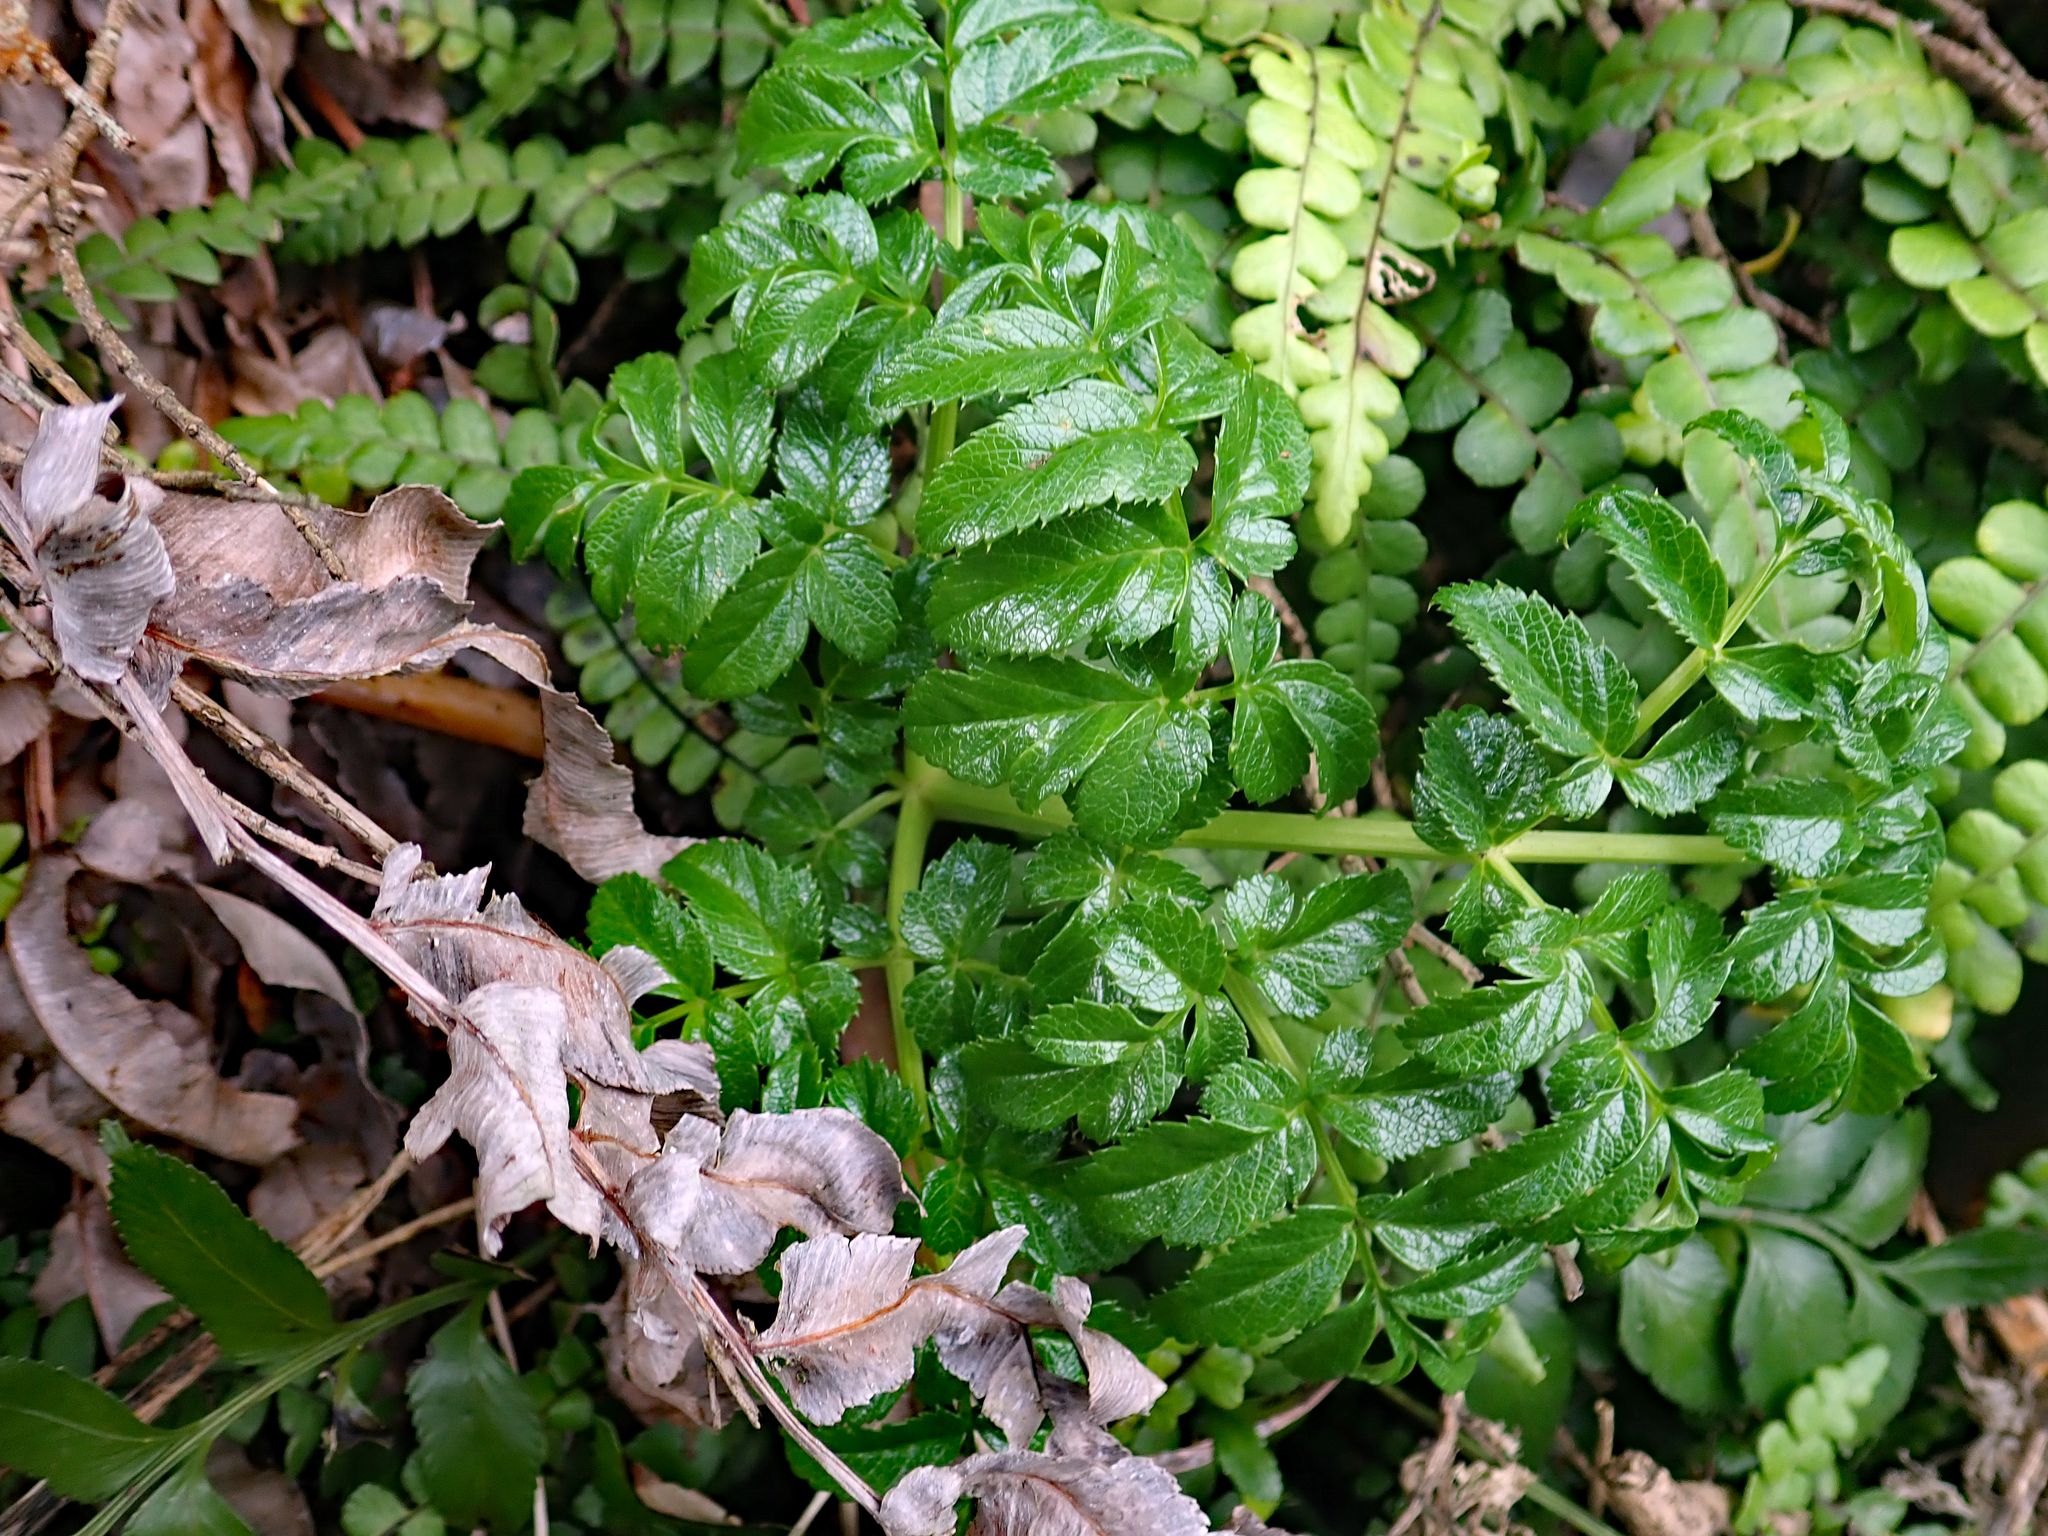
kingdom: Plantae
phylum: Tracheophyta
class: Magnoliopsida
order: Apiales
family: Apiaceae
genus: Angelica
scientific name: Angelica pachycarpa
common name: Portuguese angelica
